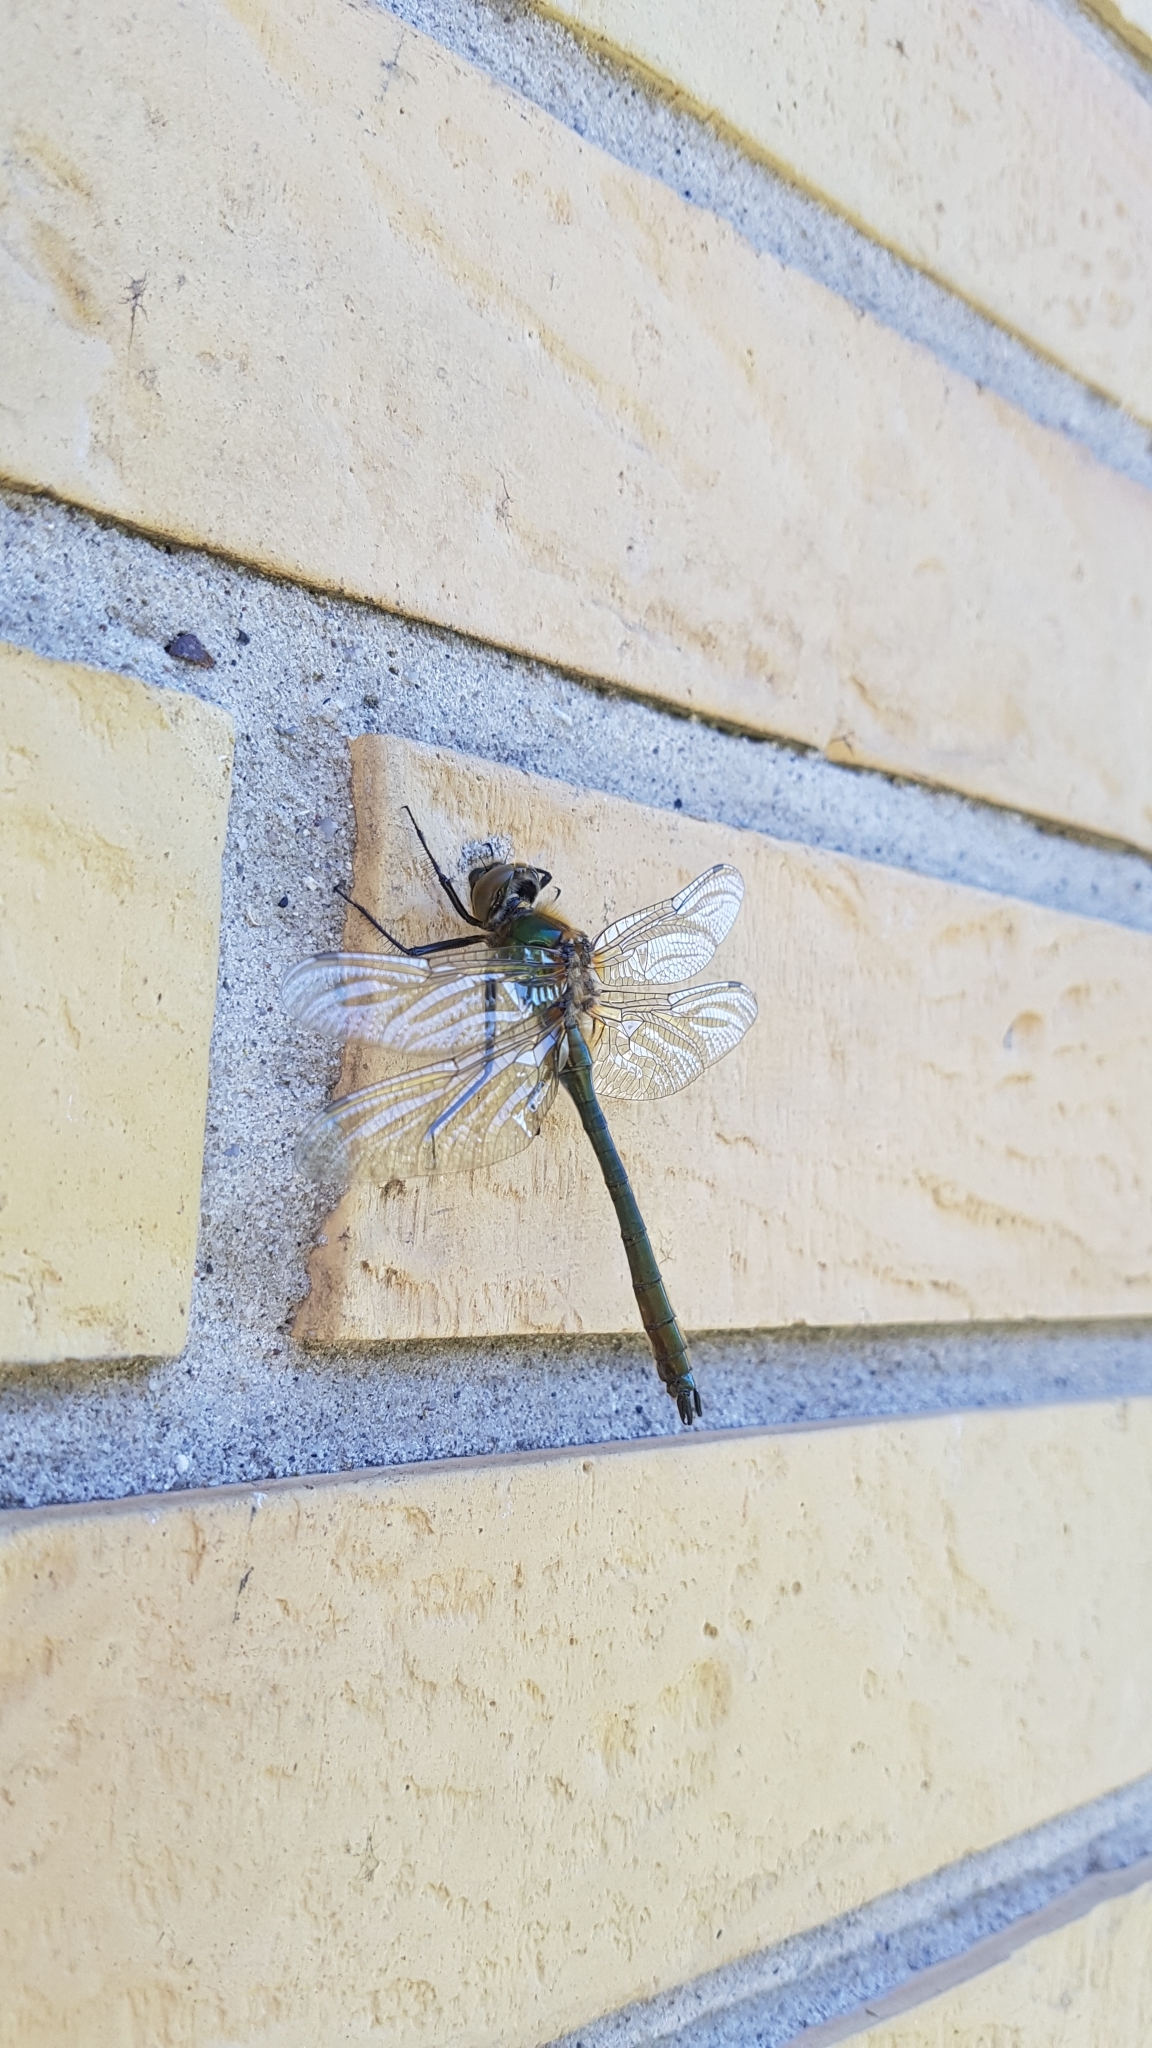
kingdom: Animalia
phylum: Arthropoda
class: Insecta
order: Odonata
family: Corduliidae
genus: Cordulia
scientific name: Cordulia aenea
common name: Downy emerald
